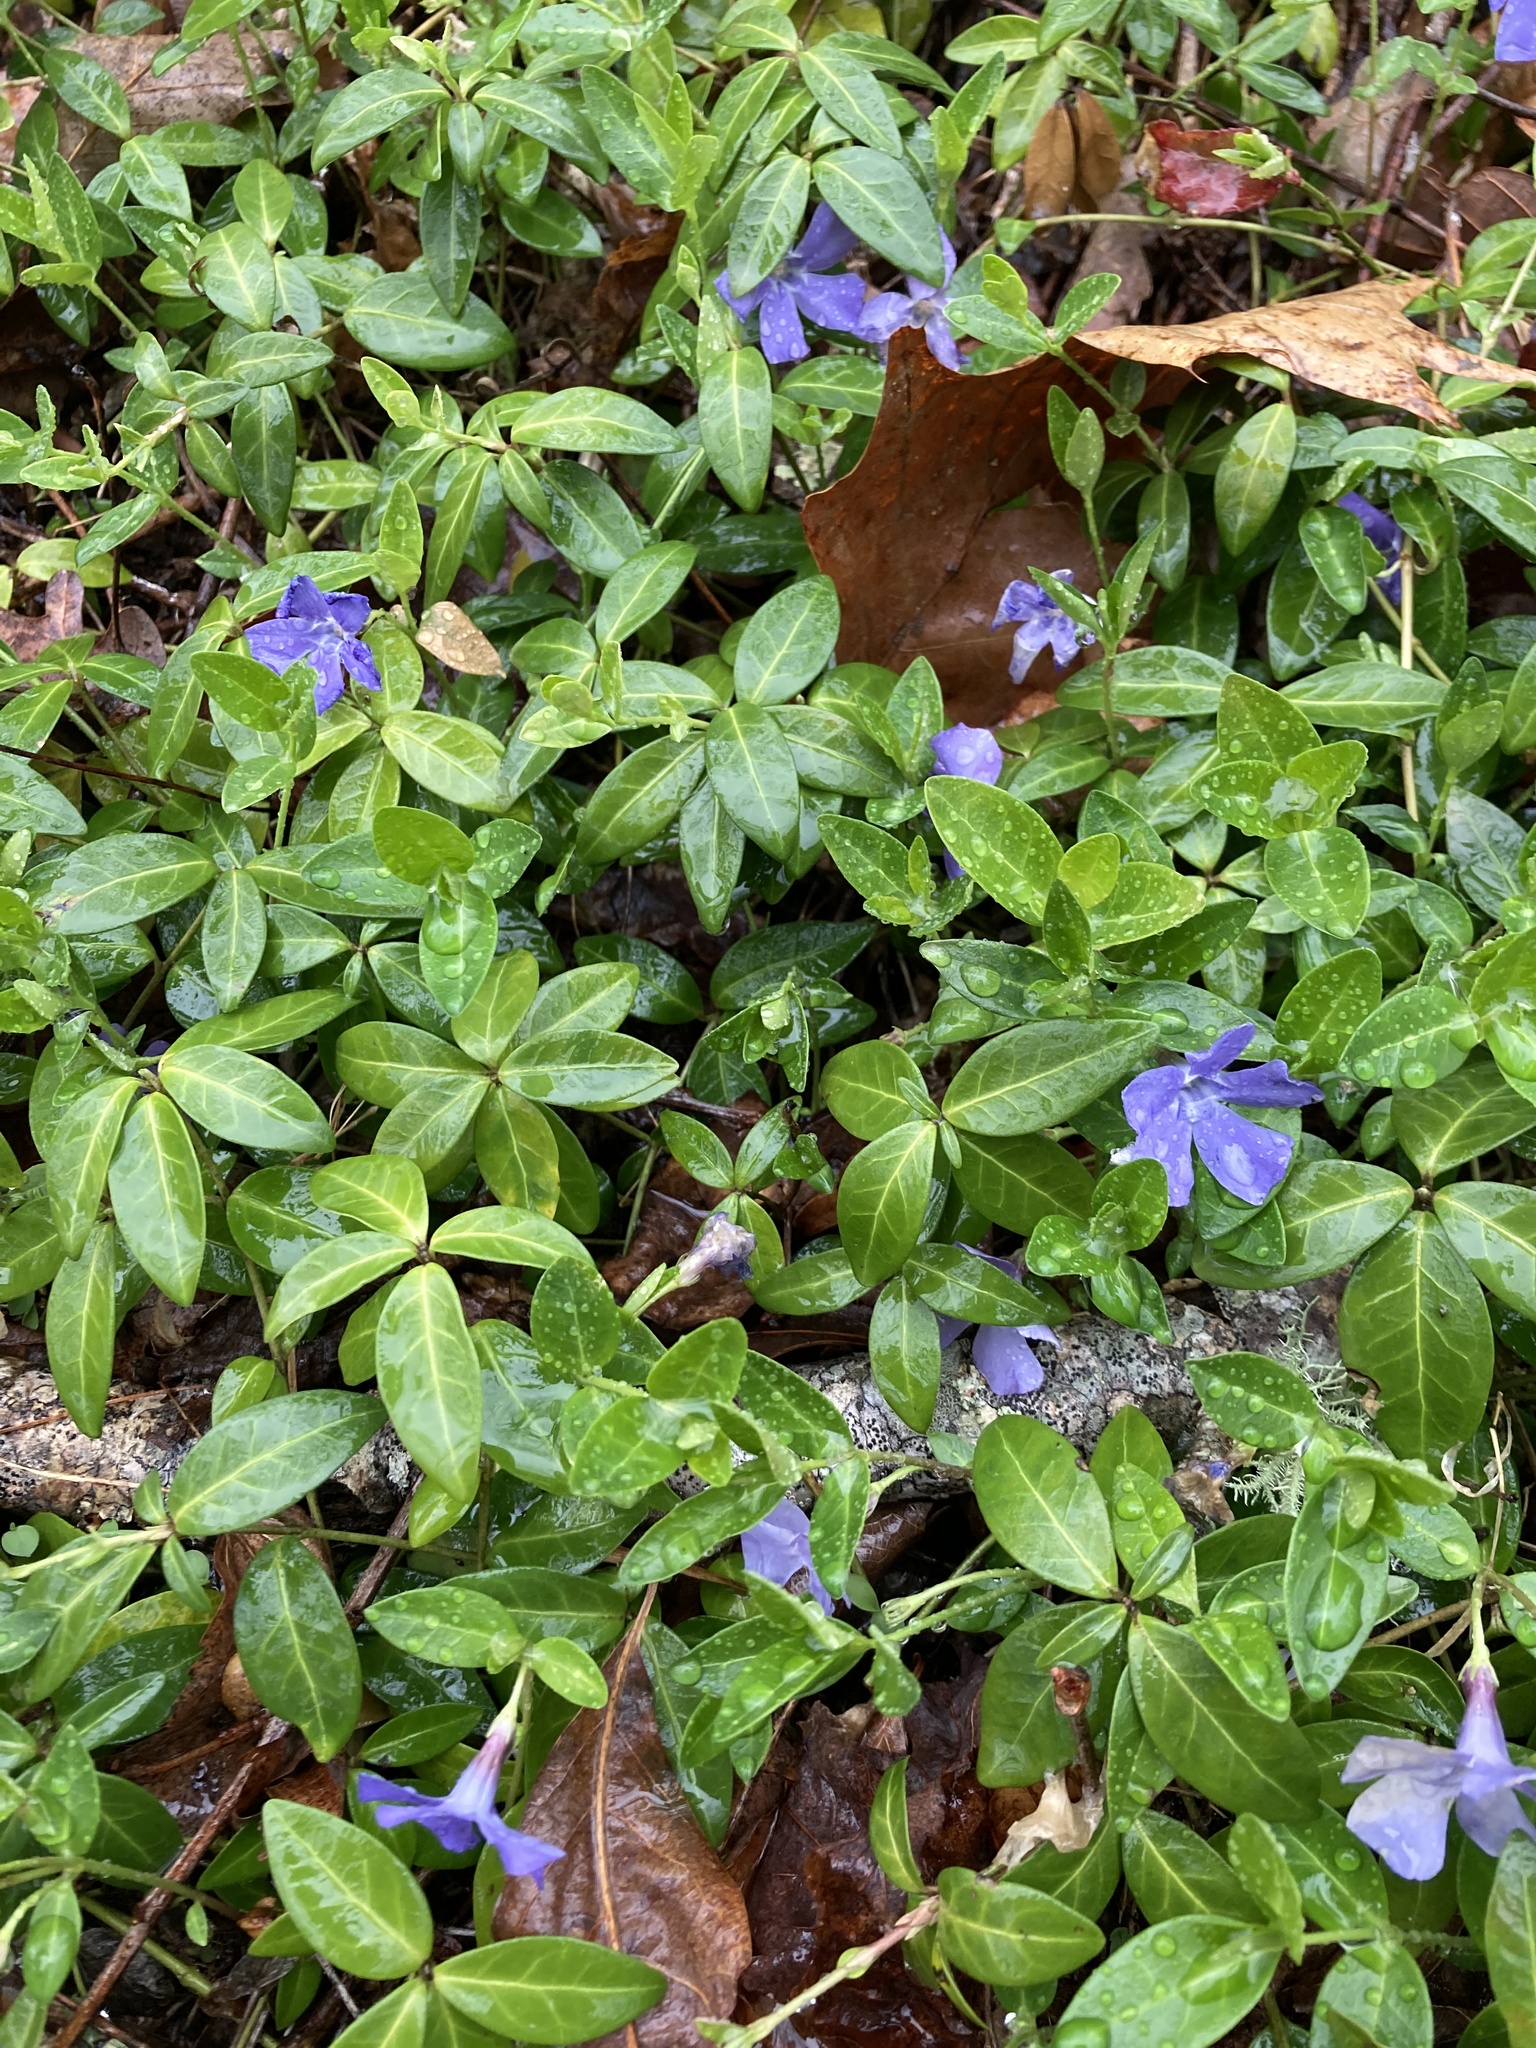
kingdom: Plantae
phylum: Tracheophyta
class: Magnoliopsida
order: Gentianales
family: Apocynaceae
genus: Vinca
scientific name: Vinca minor
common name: Lesser periwinkle
